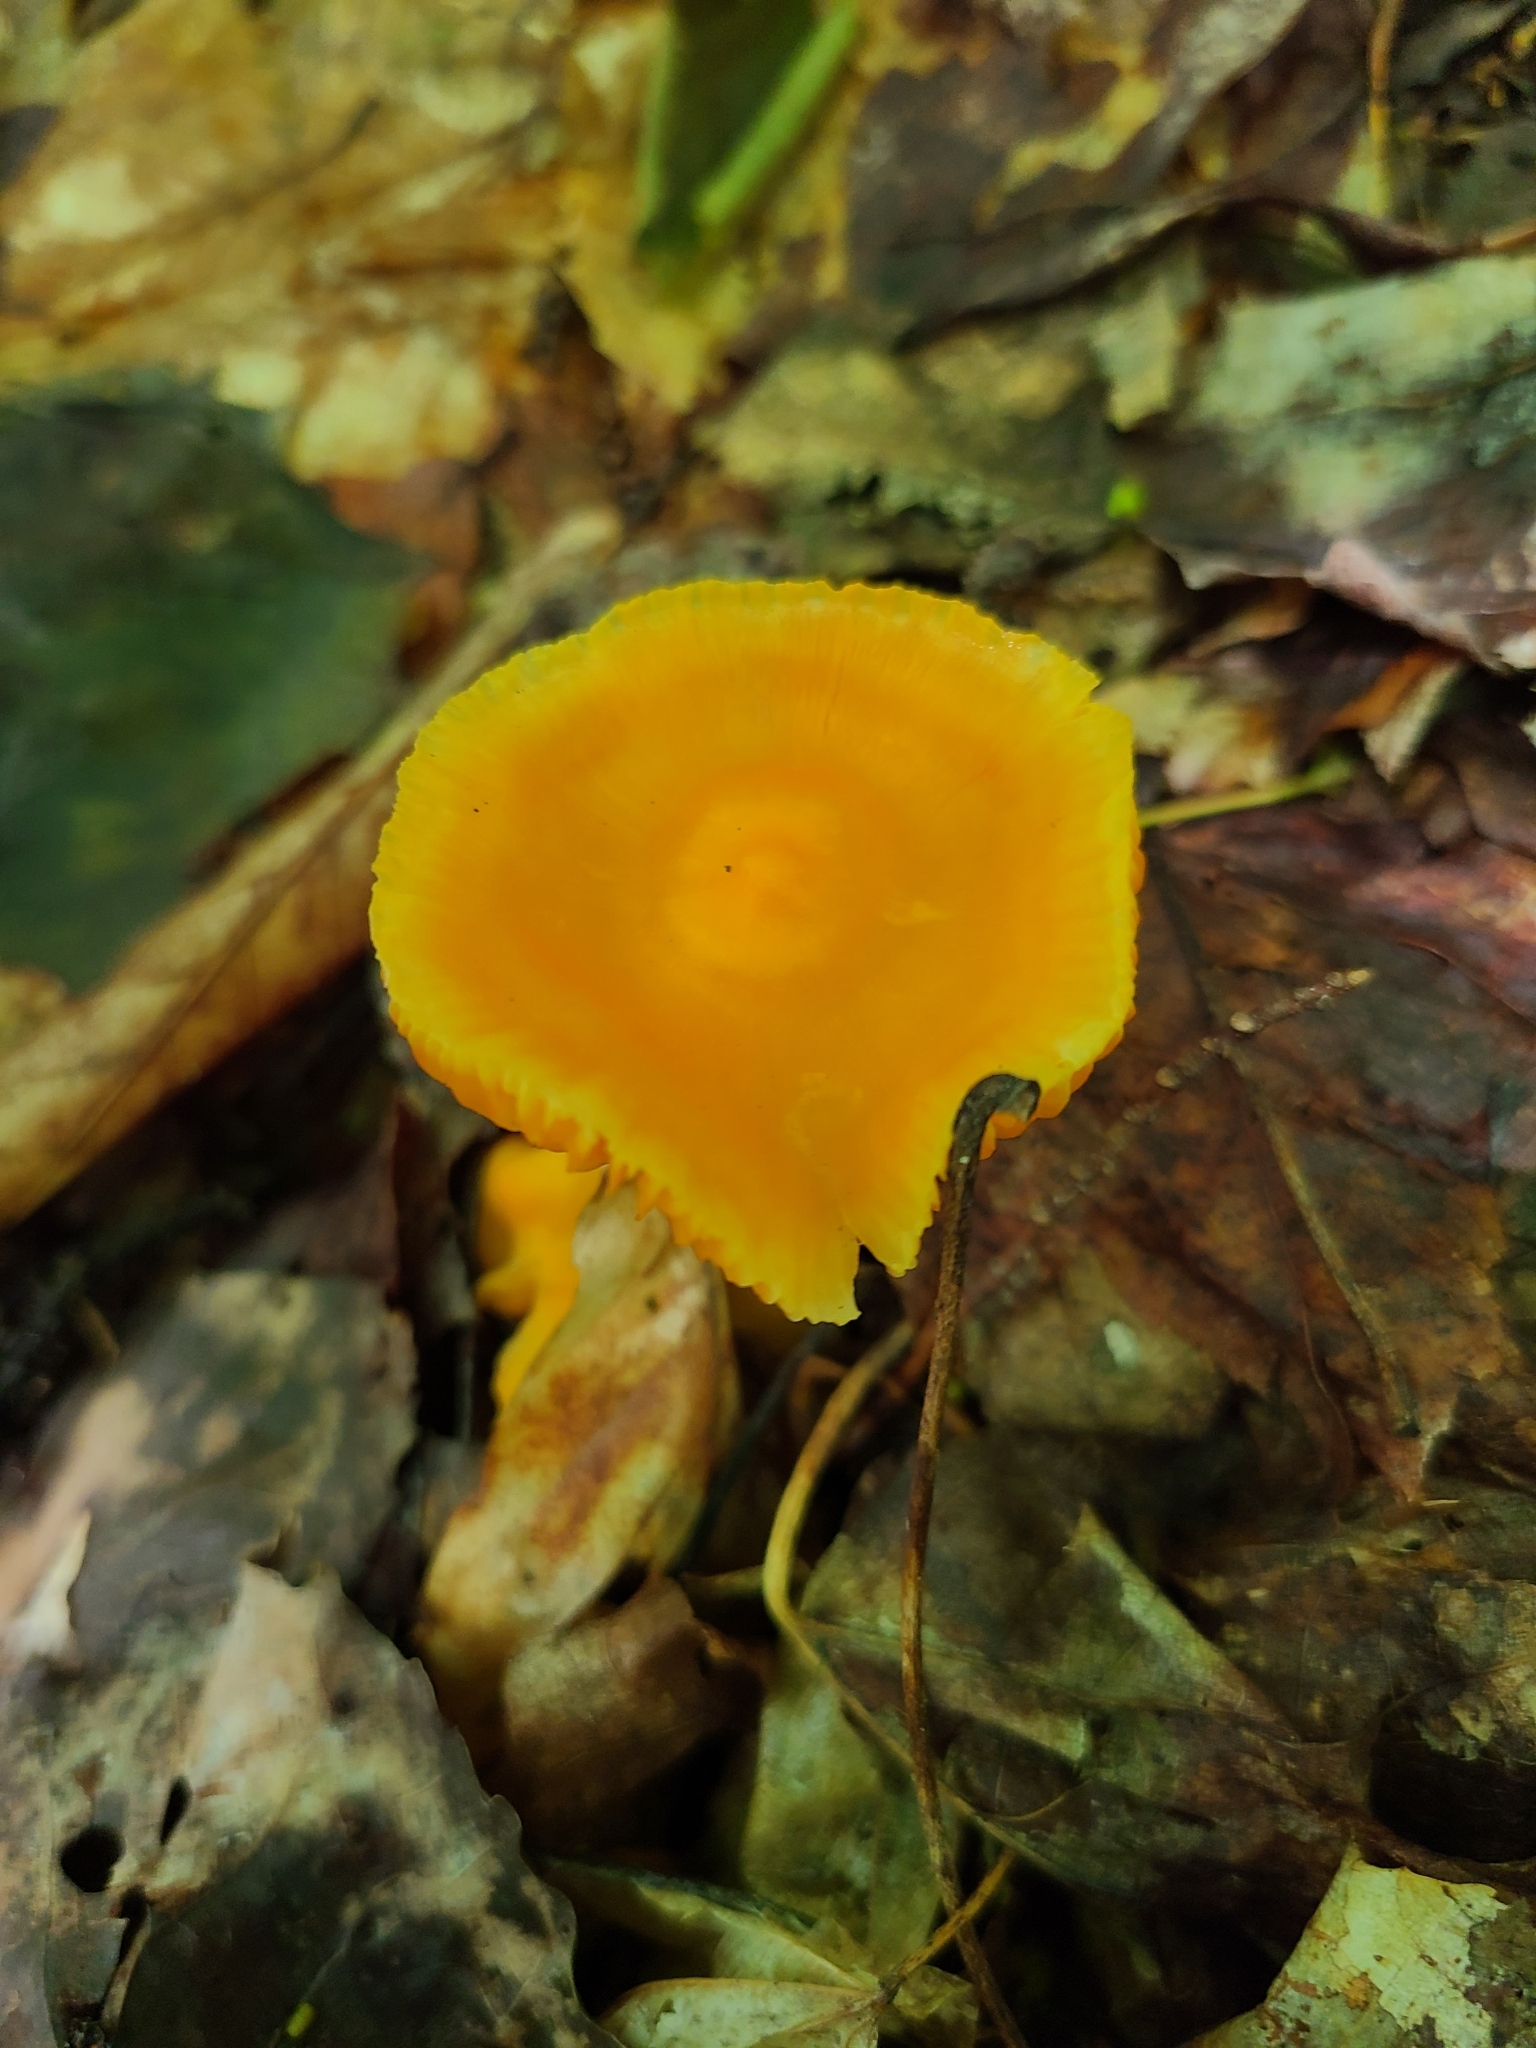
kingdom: Fungi
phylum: Basidiomycota
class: Agaricomycetes
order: Agaricales
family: Hygrophoraceae
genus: Humidicutis
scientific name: Humidicutis marginata
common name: Orange gilled waxcap
